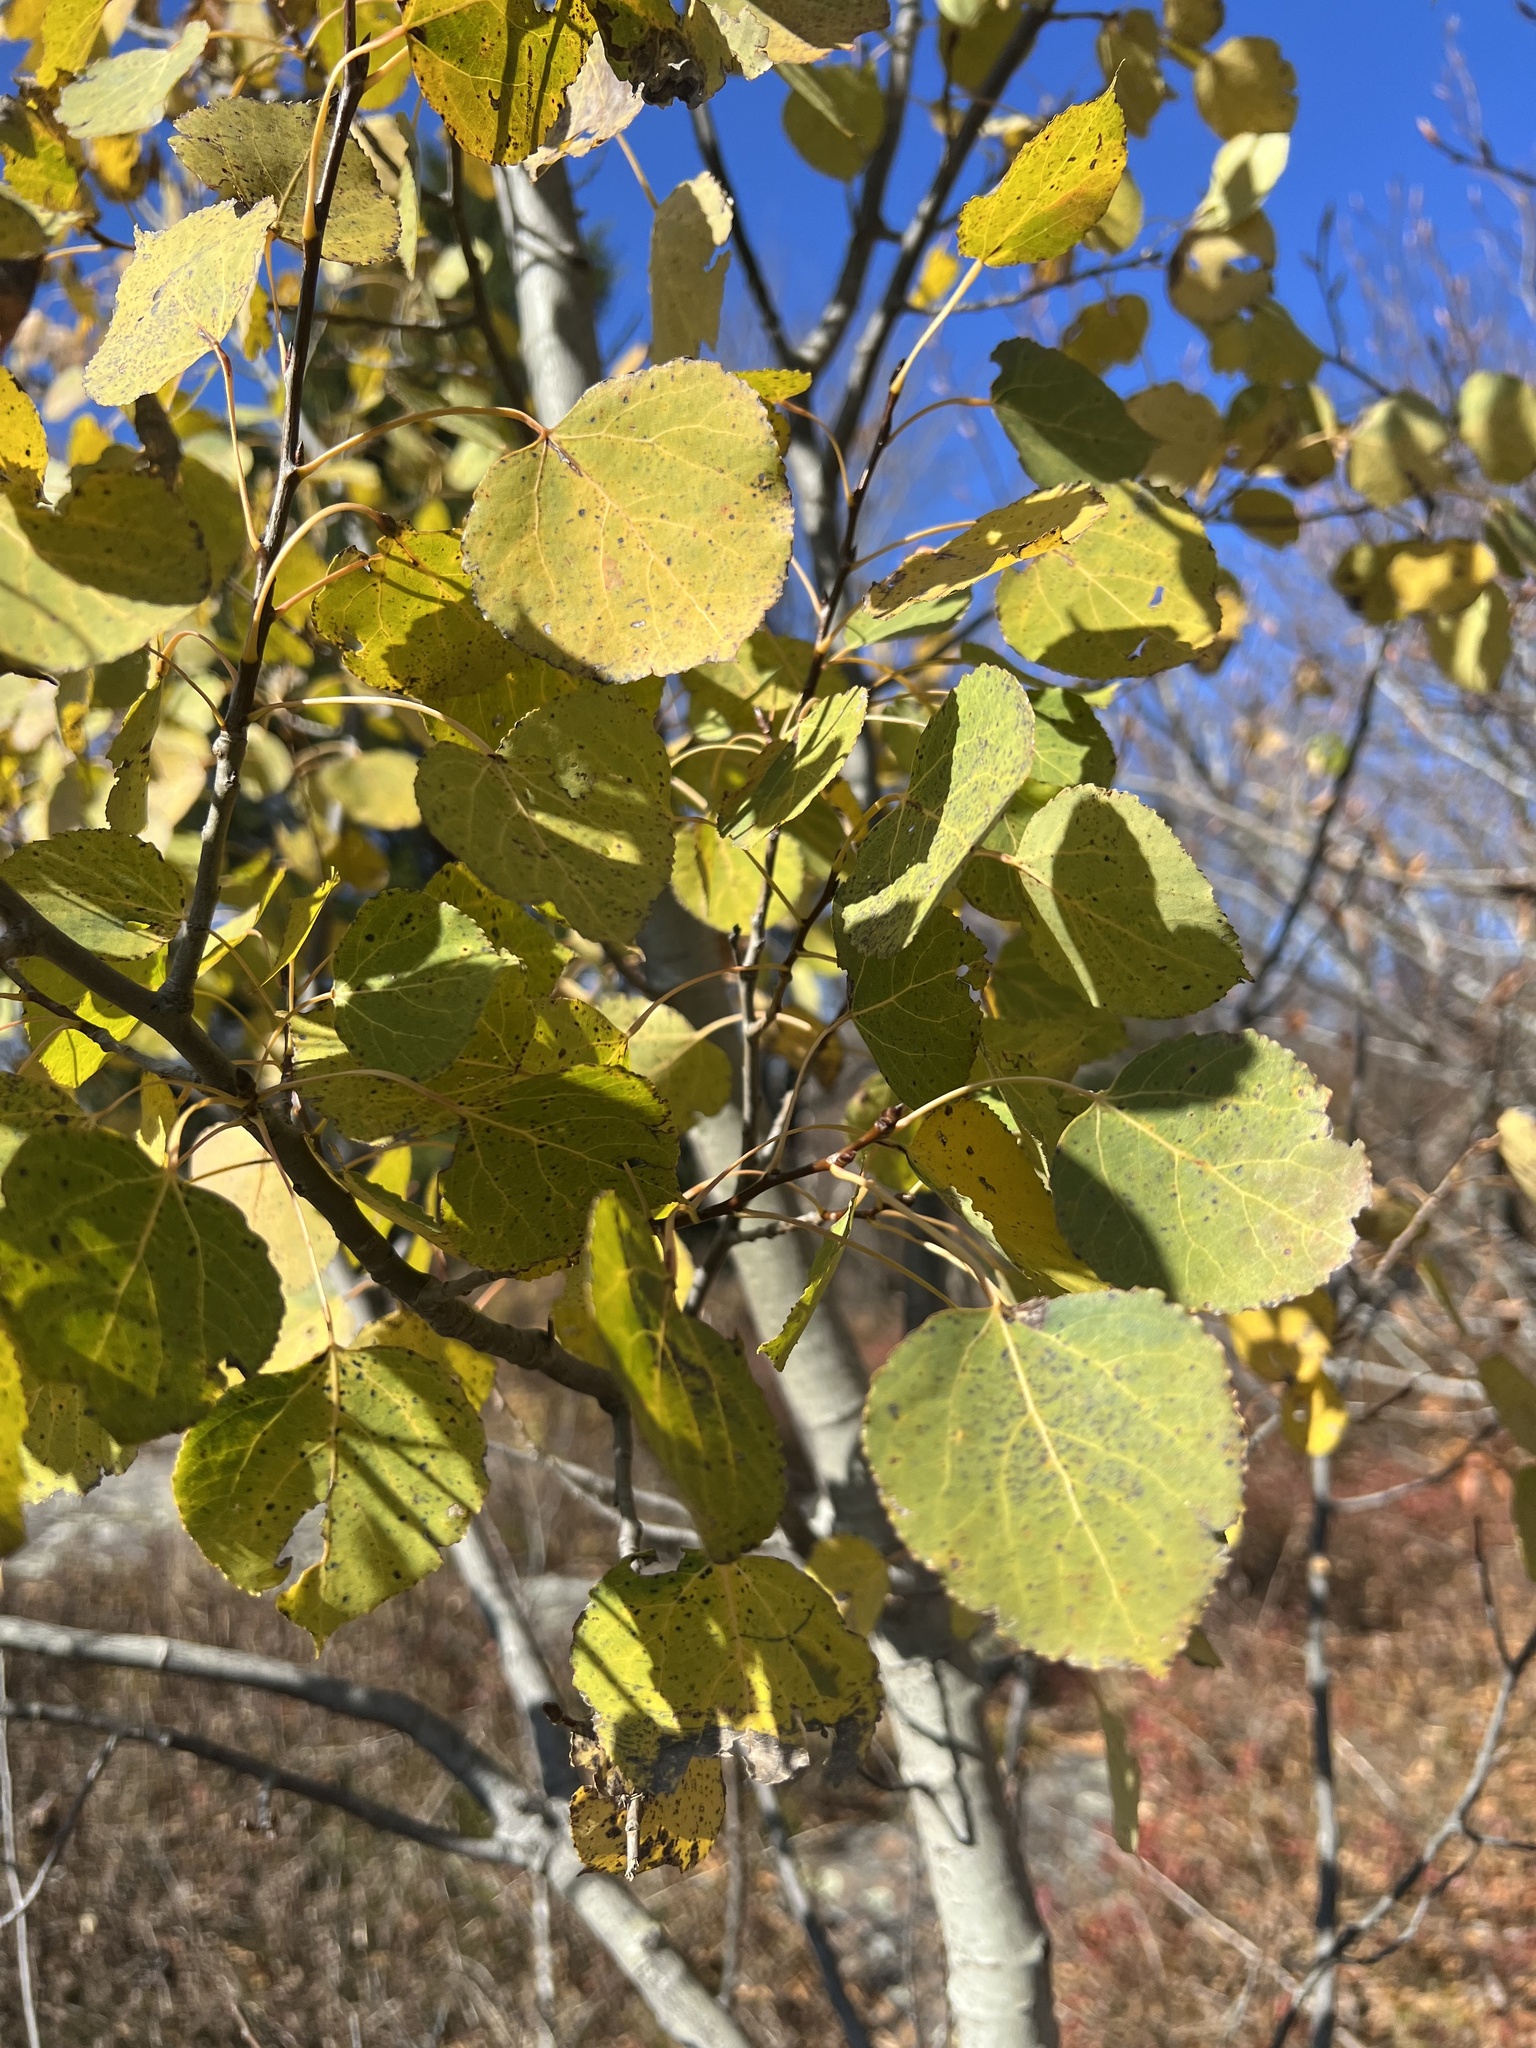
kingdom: Plantae
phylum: Tracheophyta
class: Magnoliopsida
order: Malpighiales
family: Salicaceae
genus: Populus
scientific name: Populus tremuloides
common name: Quaking aspen
